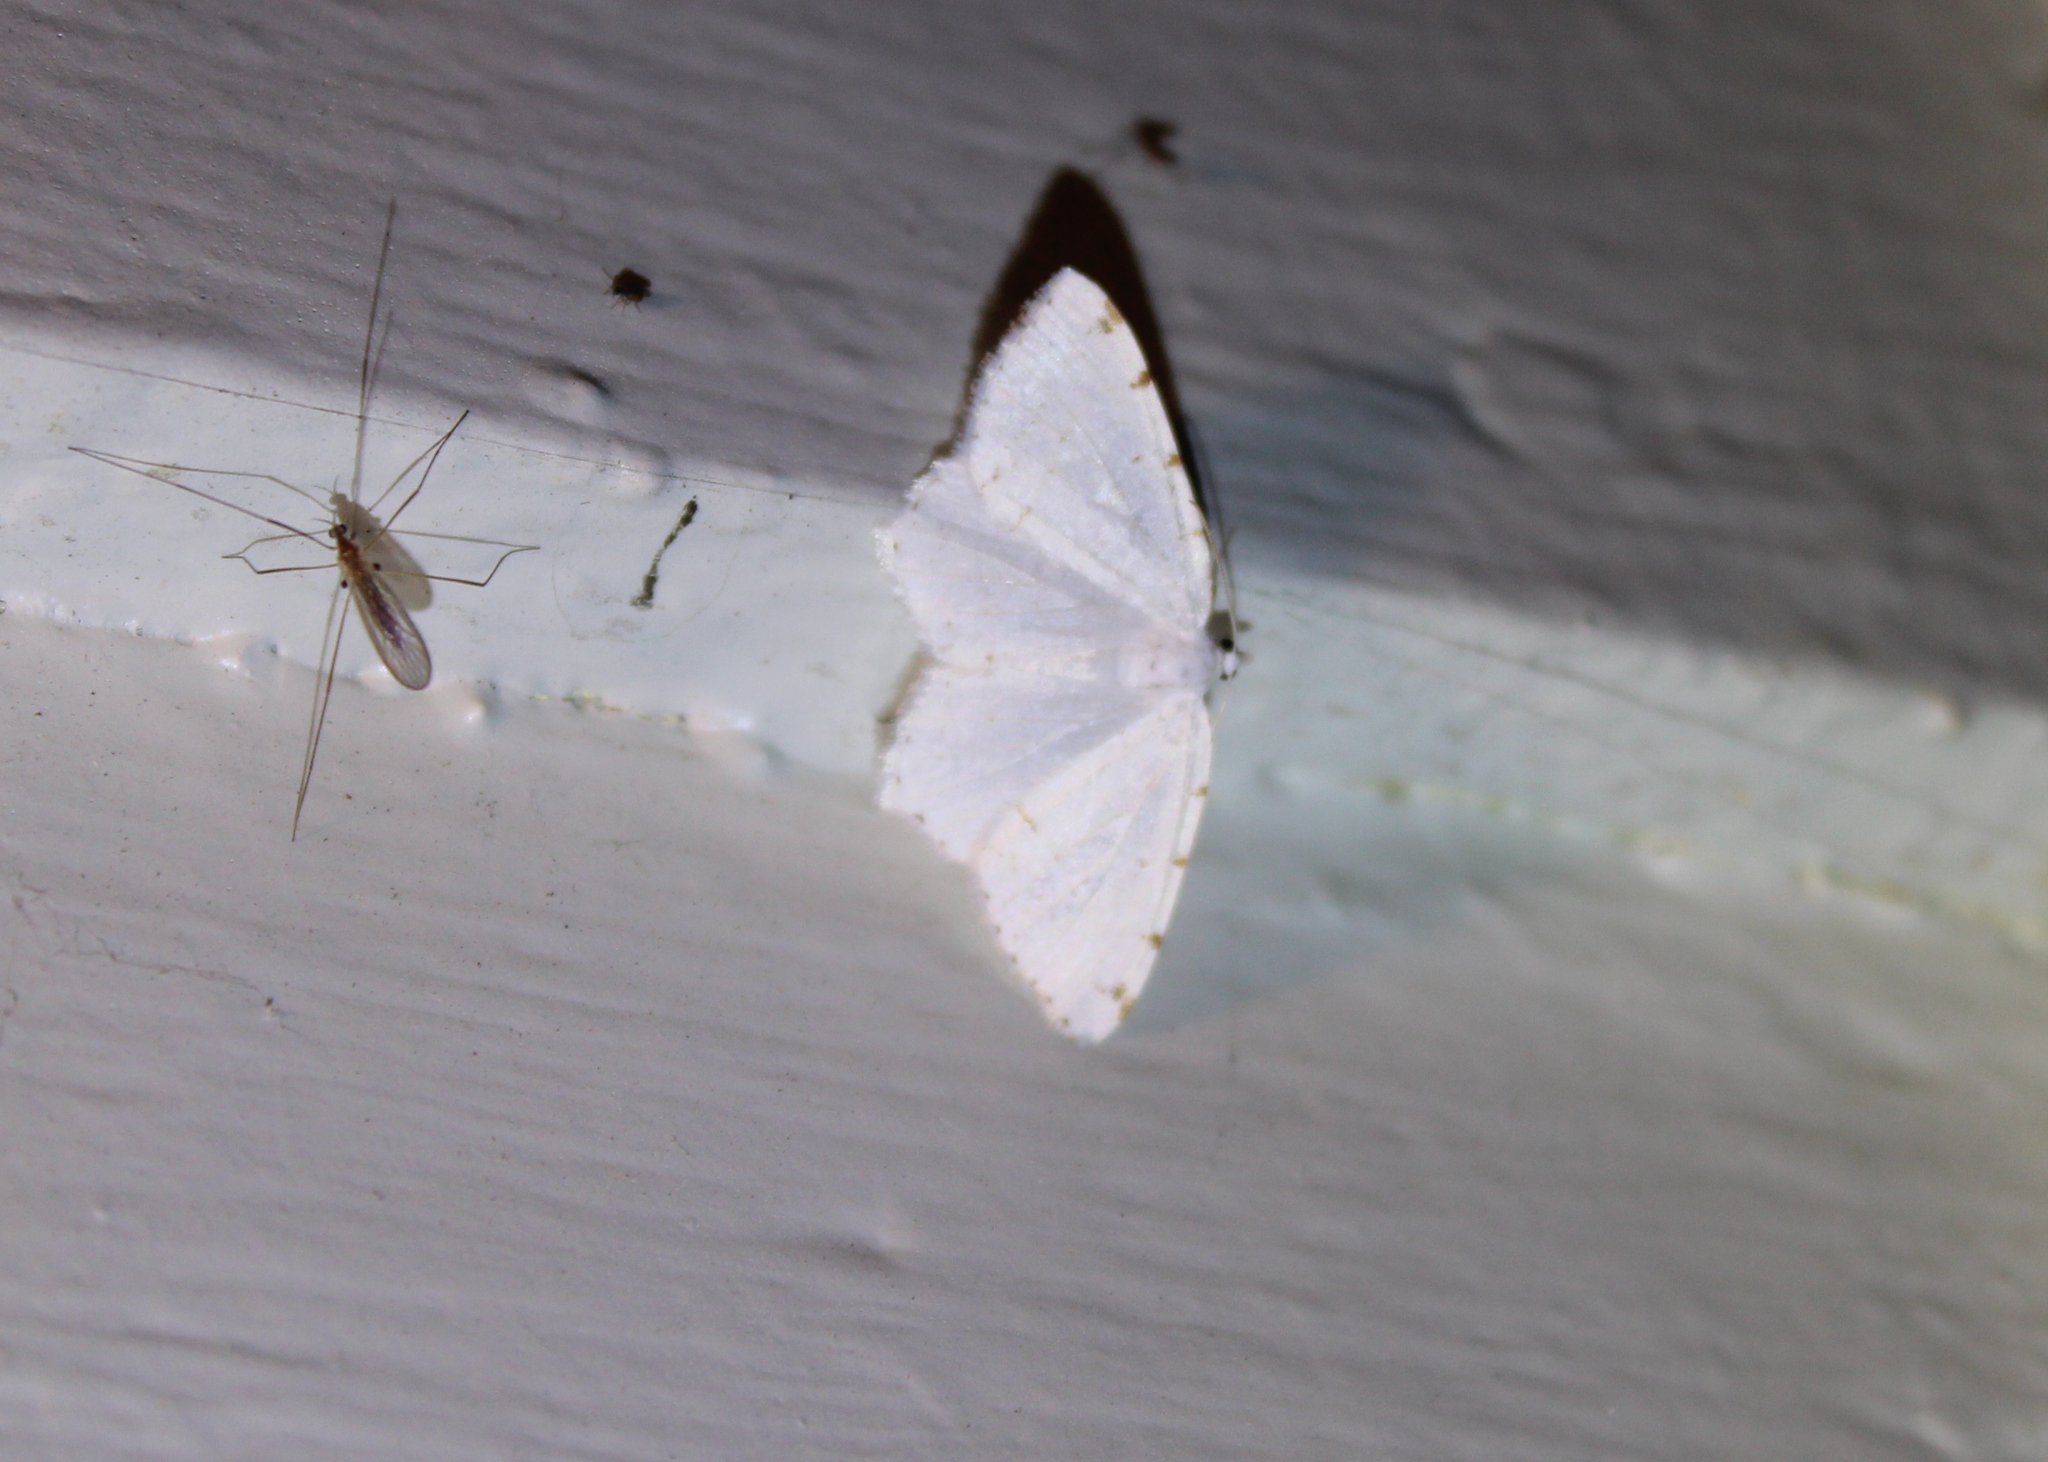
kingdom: Animalia
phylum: Arthropoda
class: Insecta
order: Lepidoptera
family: Geometridae
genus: Macaria
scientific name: Macaria pustularia
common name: Lesser maple spanworm moth
